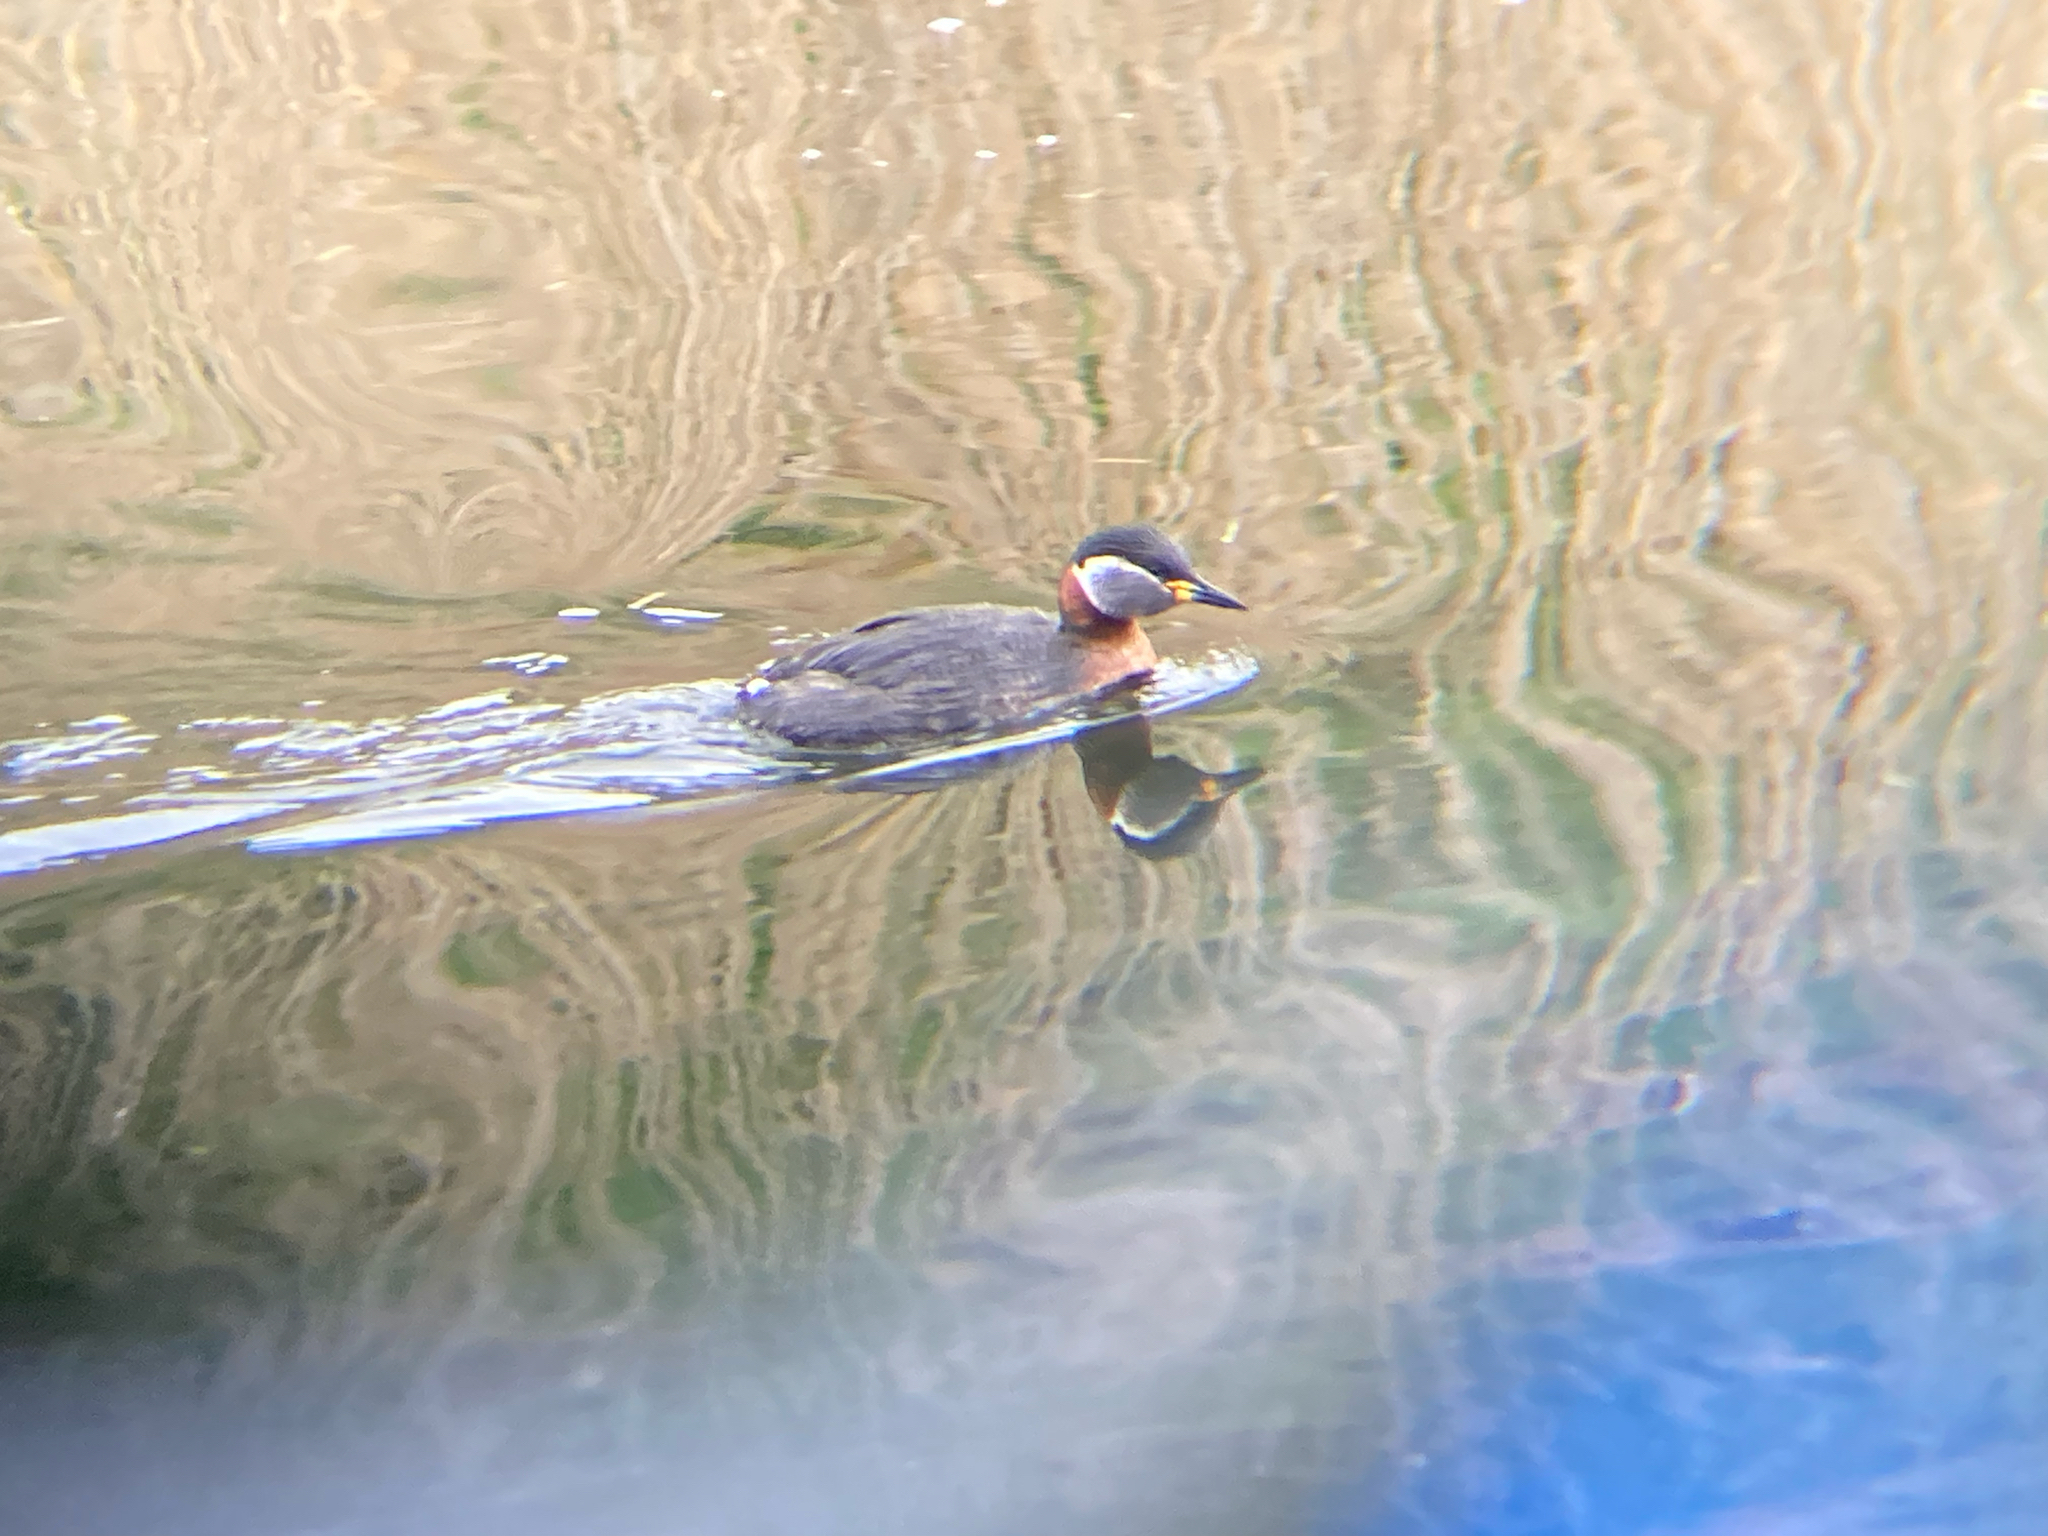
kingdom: Animalia
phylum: Chordata
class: Aves
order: Podicipediformes
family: Podicipedidae
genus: Podiceps
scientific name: Podiceps grisegena
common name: Red-necked grebe
